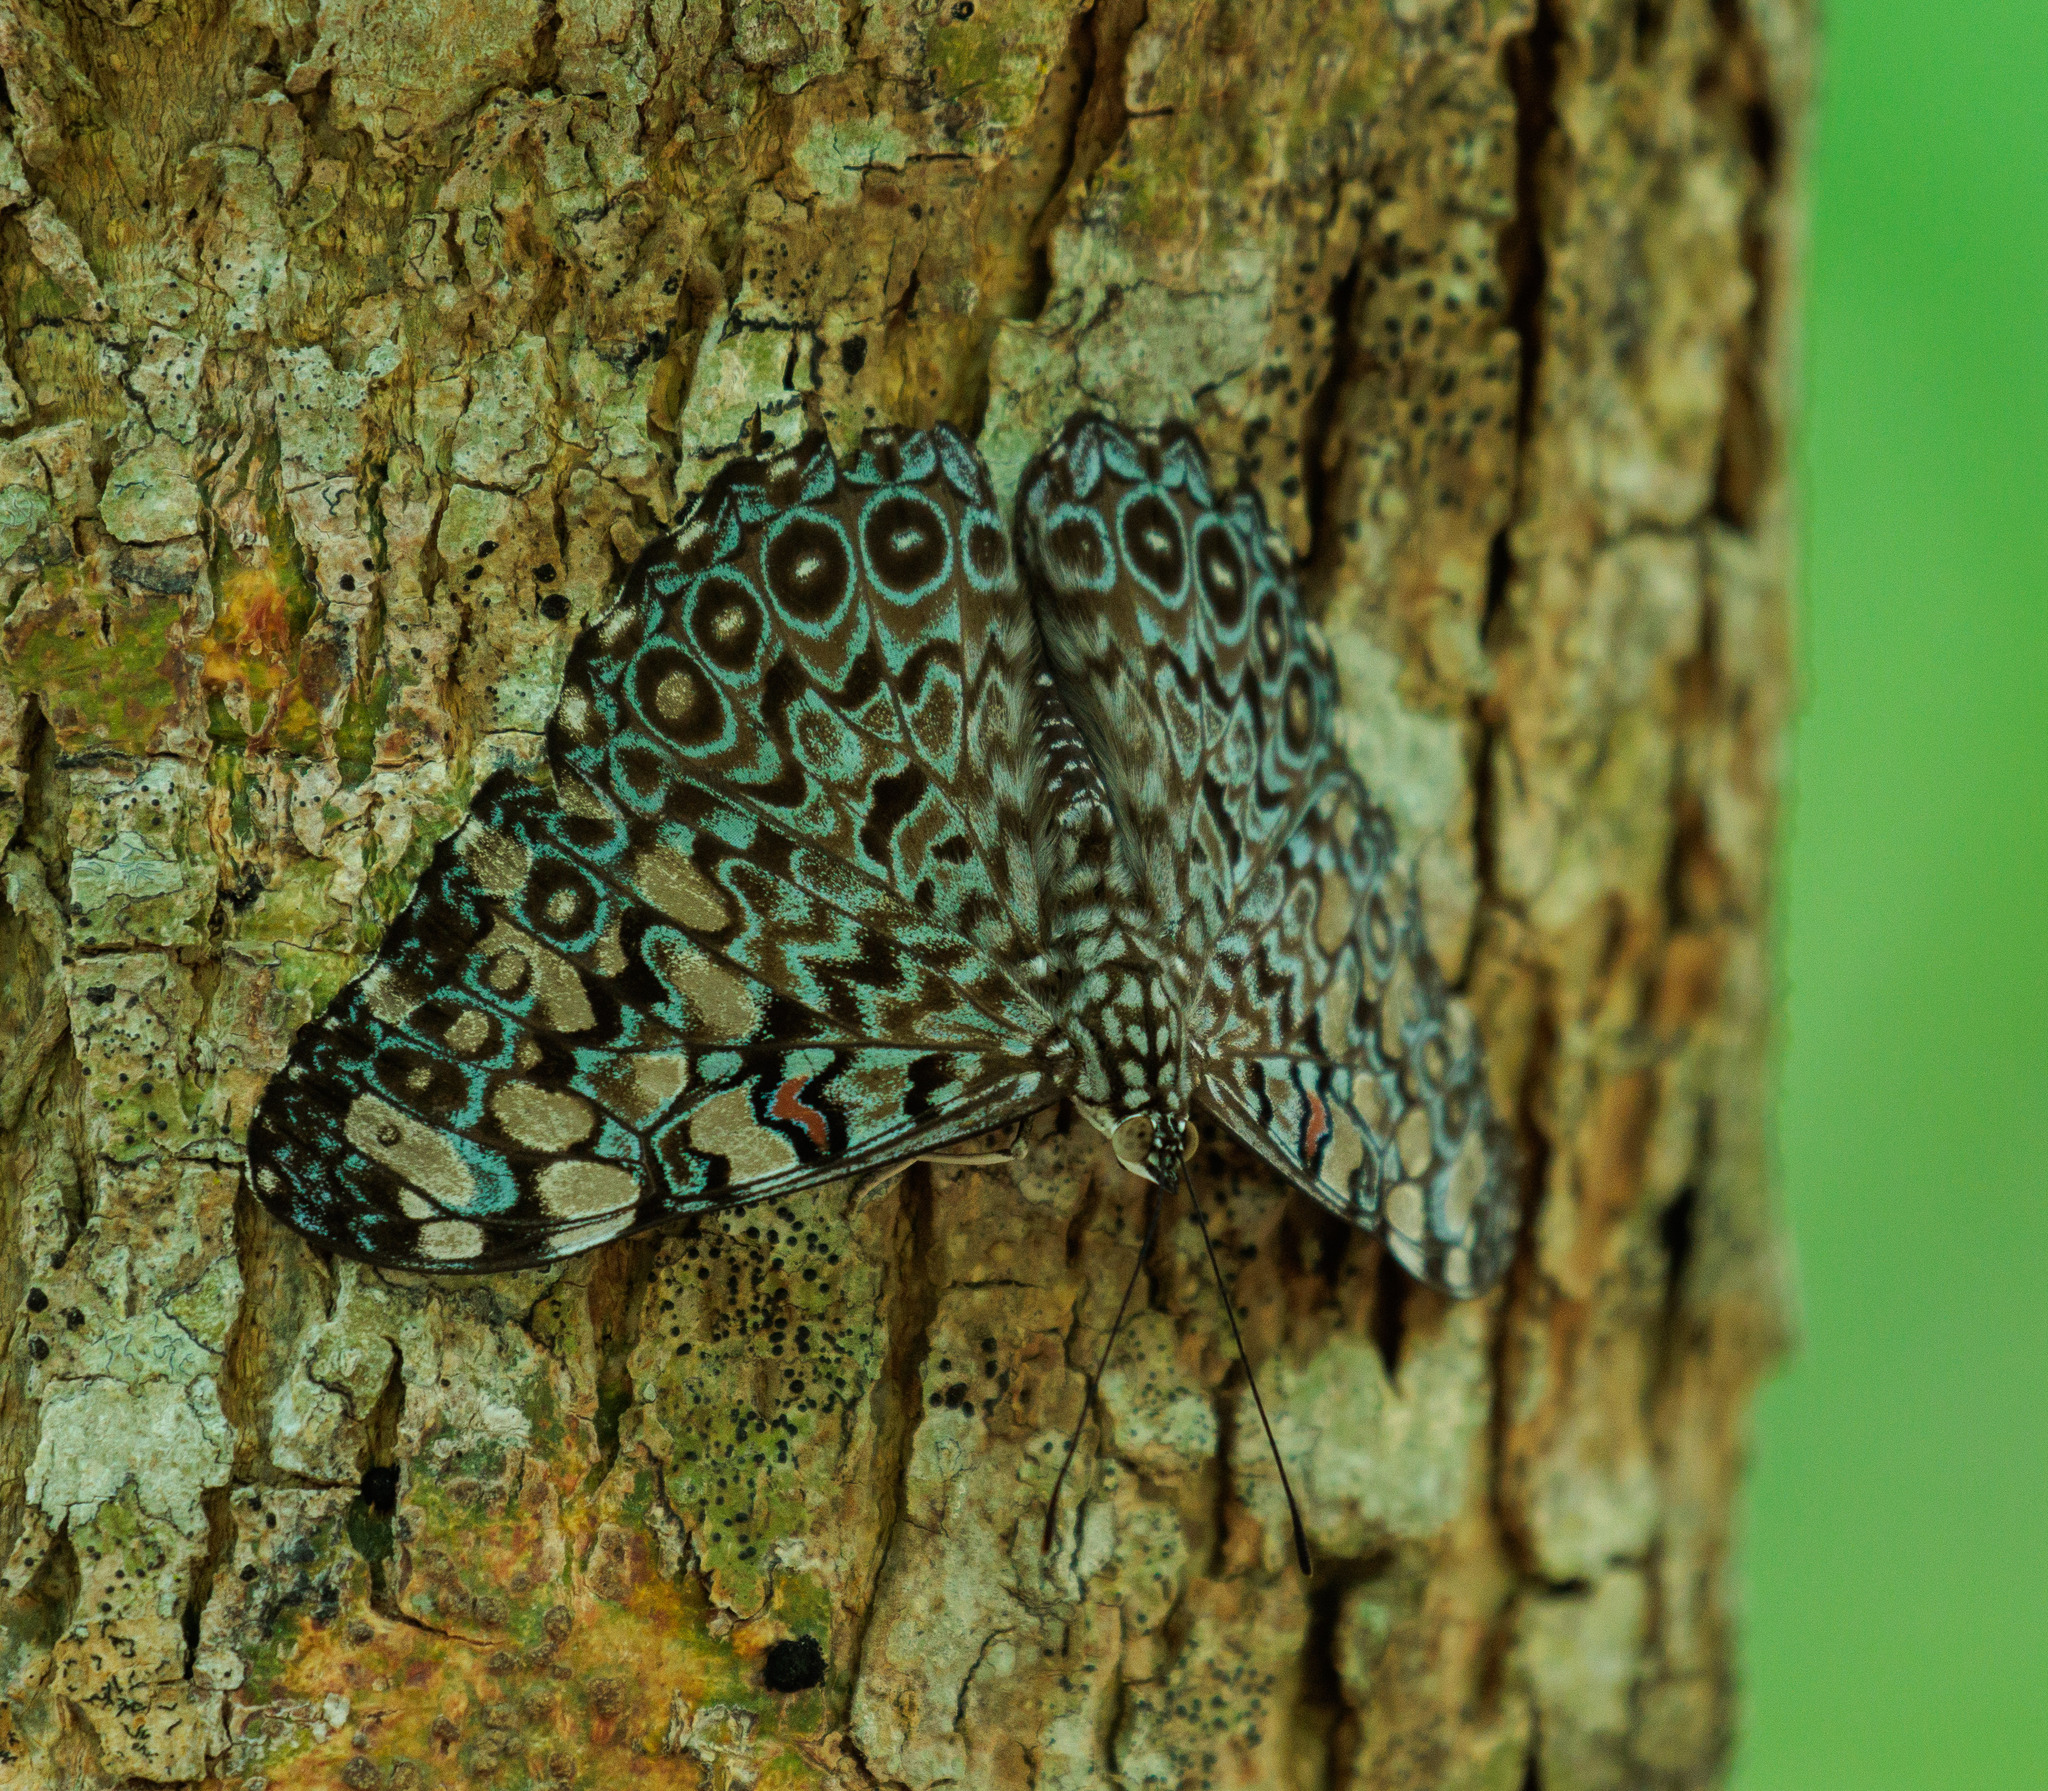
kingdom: Animalia
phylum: Arthropoda
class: Insecta
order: Lepidoptera
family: Nymphalidae
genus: Hamadryas
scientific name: Hamadryas feronia
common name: Variable cracker
